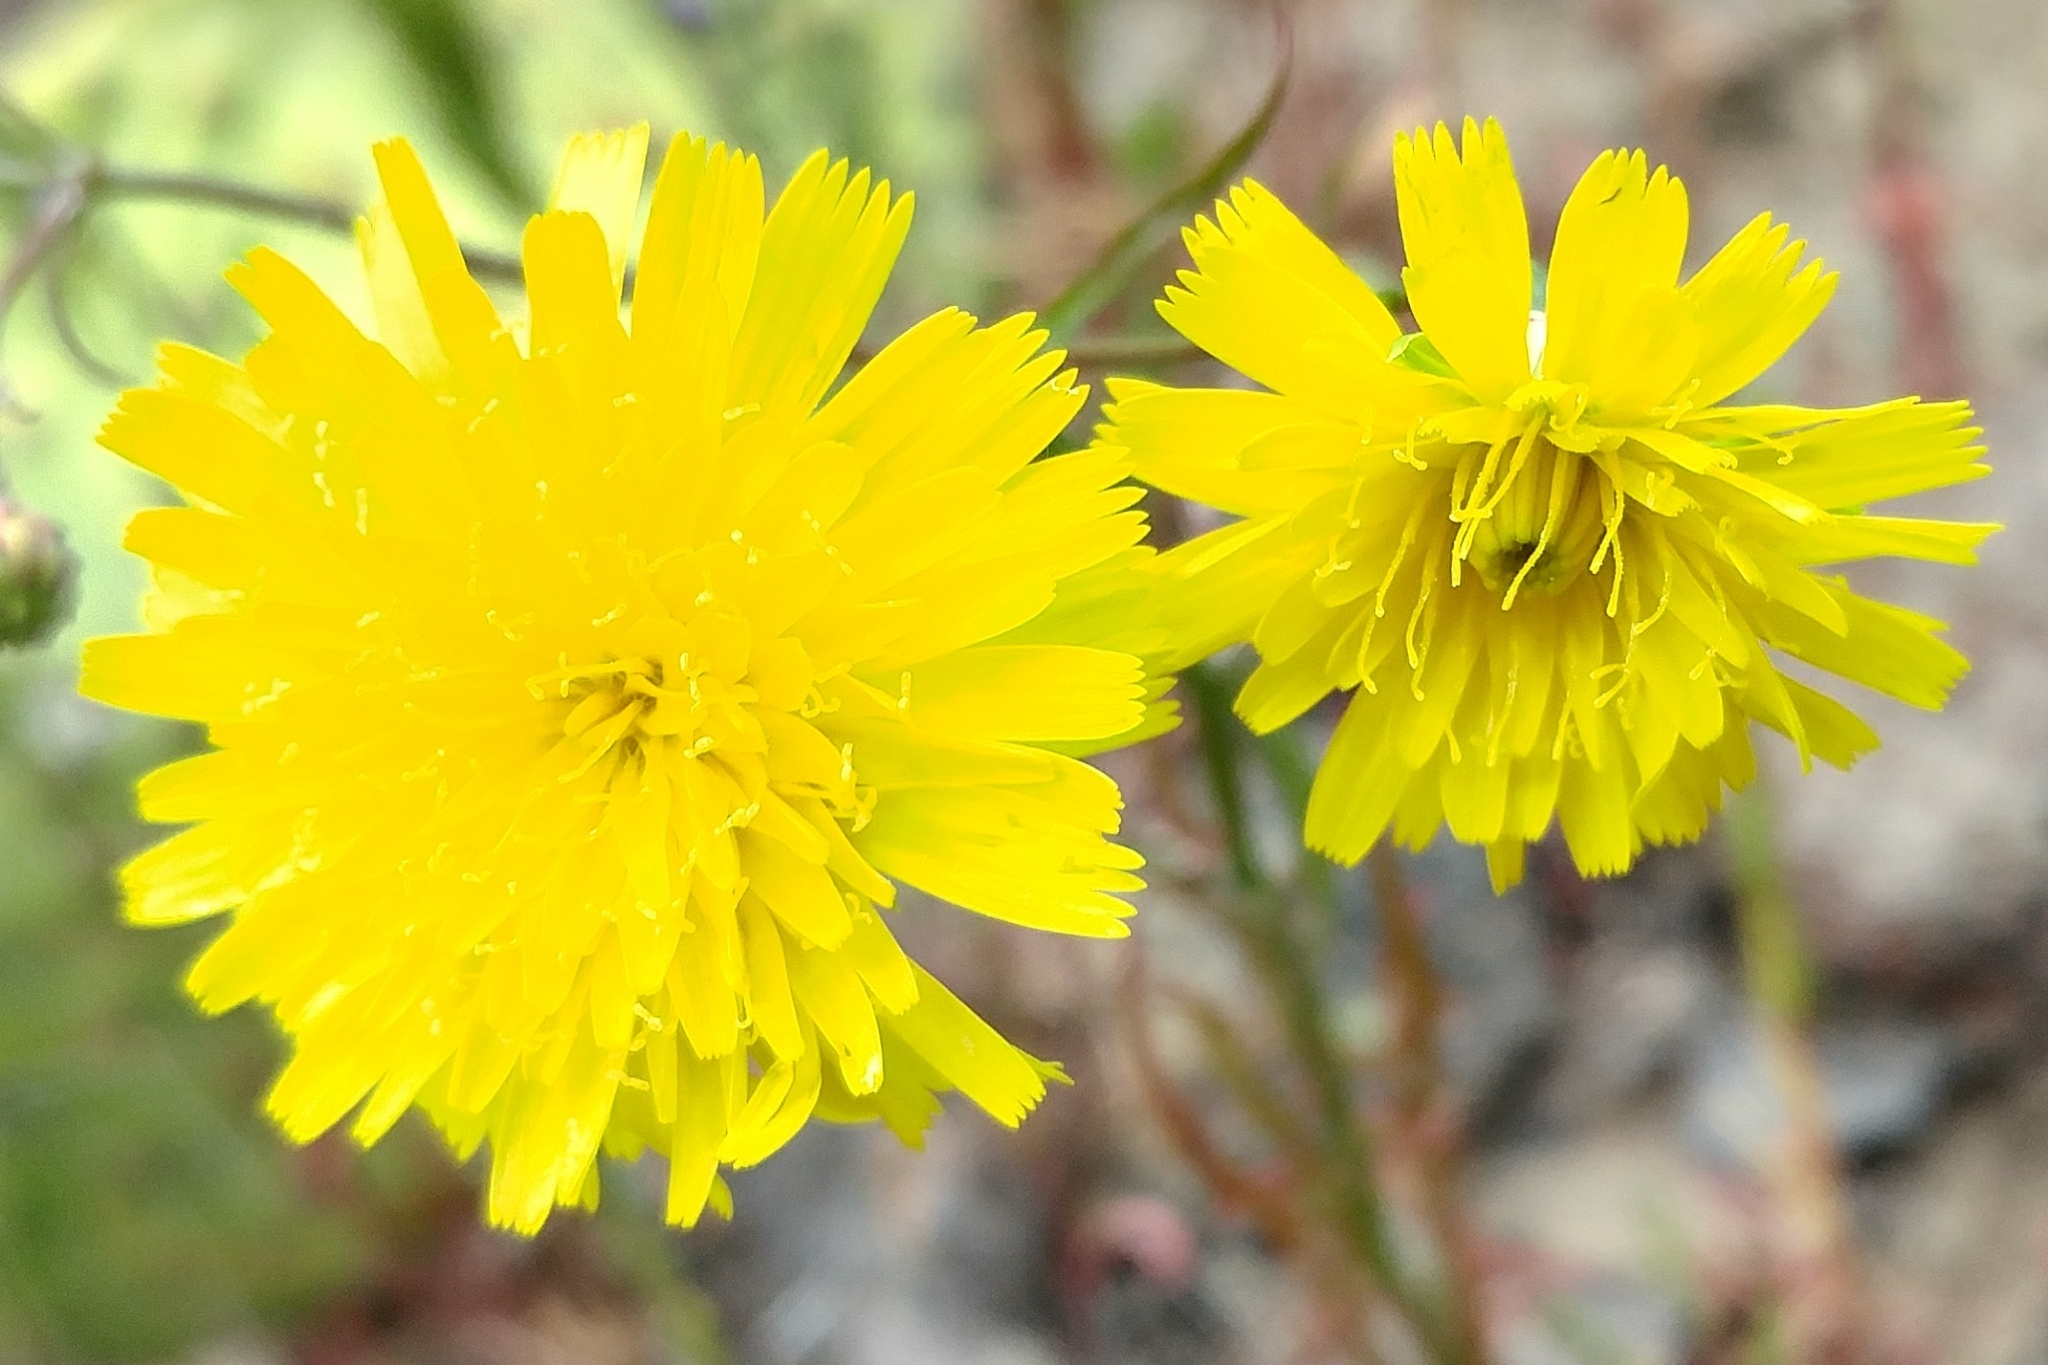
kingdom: Plantae
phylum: Tracheophyta
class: Magnoliopsida
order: Asterales
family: Asteraceae
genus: Malacothrix
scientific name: Malacothrix foliosa
